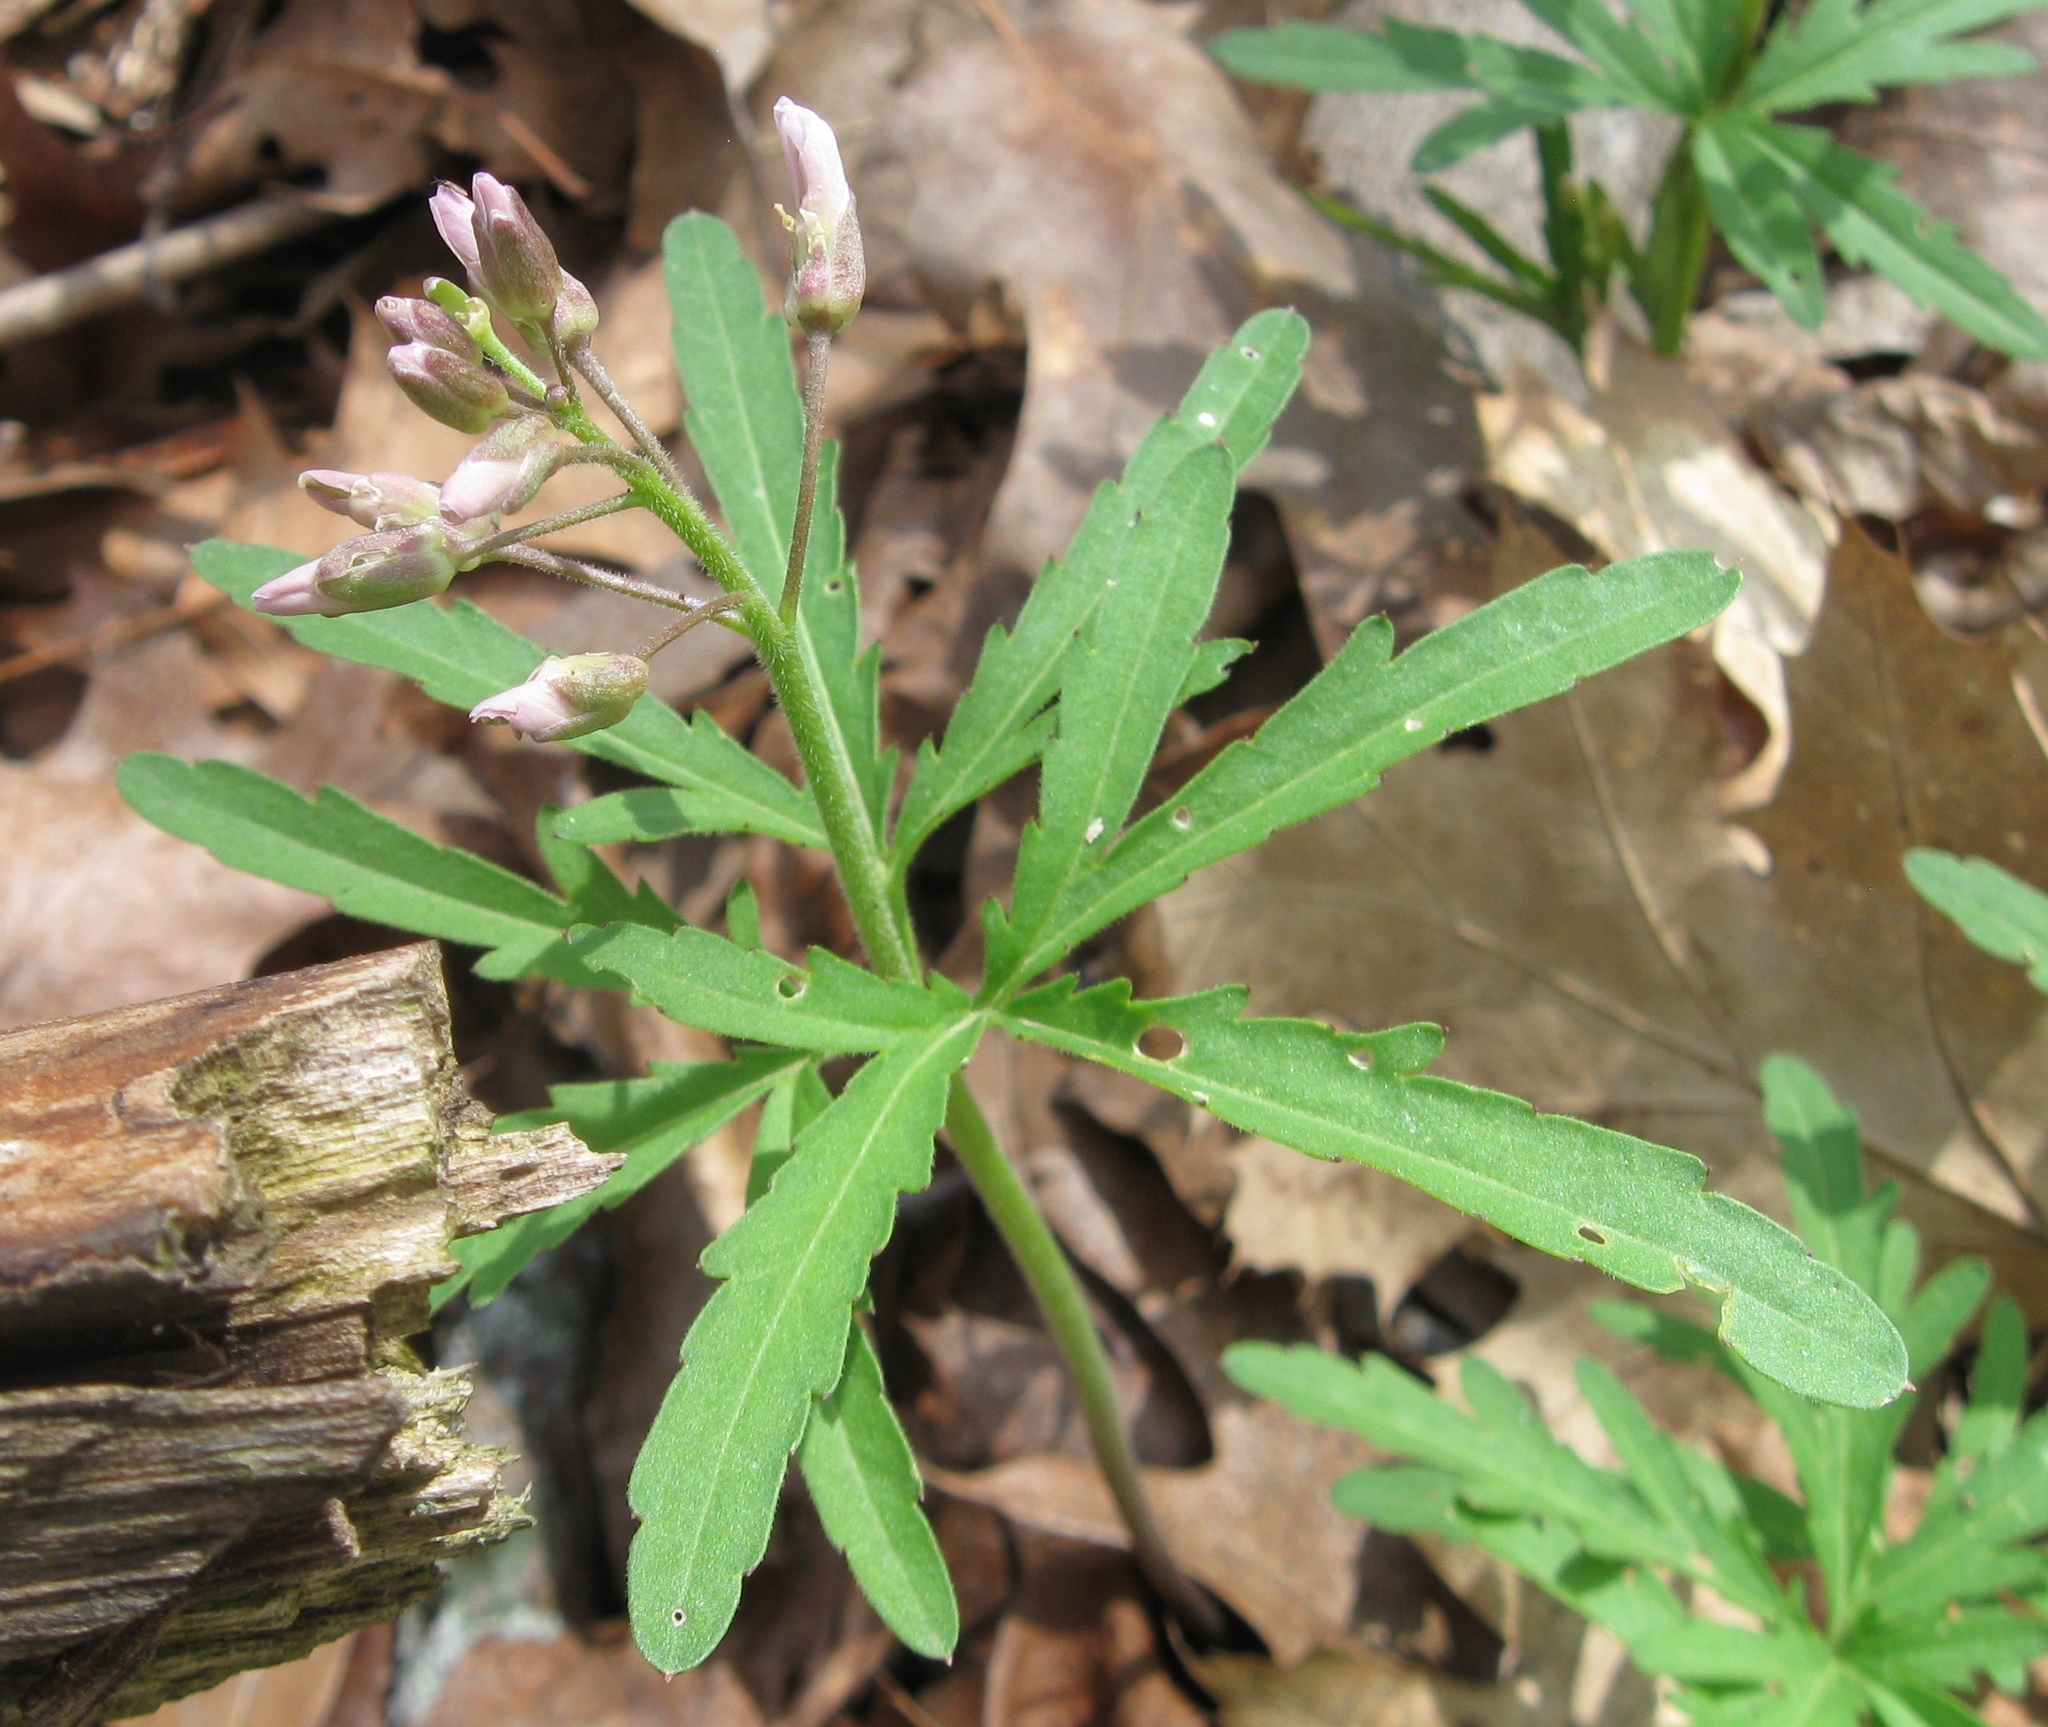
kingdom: Plantae
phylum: Tracheophyta
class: Magnoliopsida
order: Brassicales
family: Brassicaceae
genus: Cardamine
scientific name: Cardamine concatenata
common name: Cut-leaf toothcup
